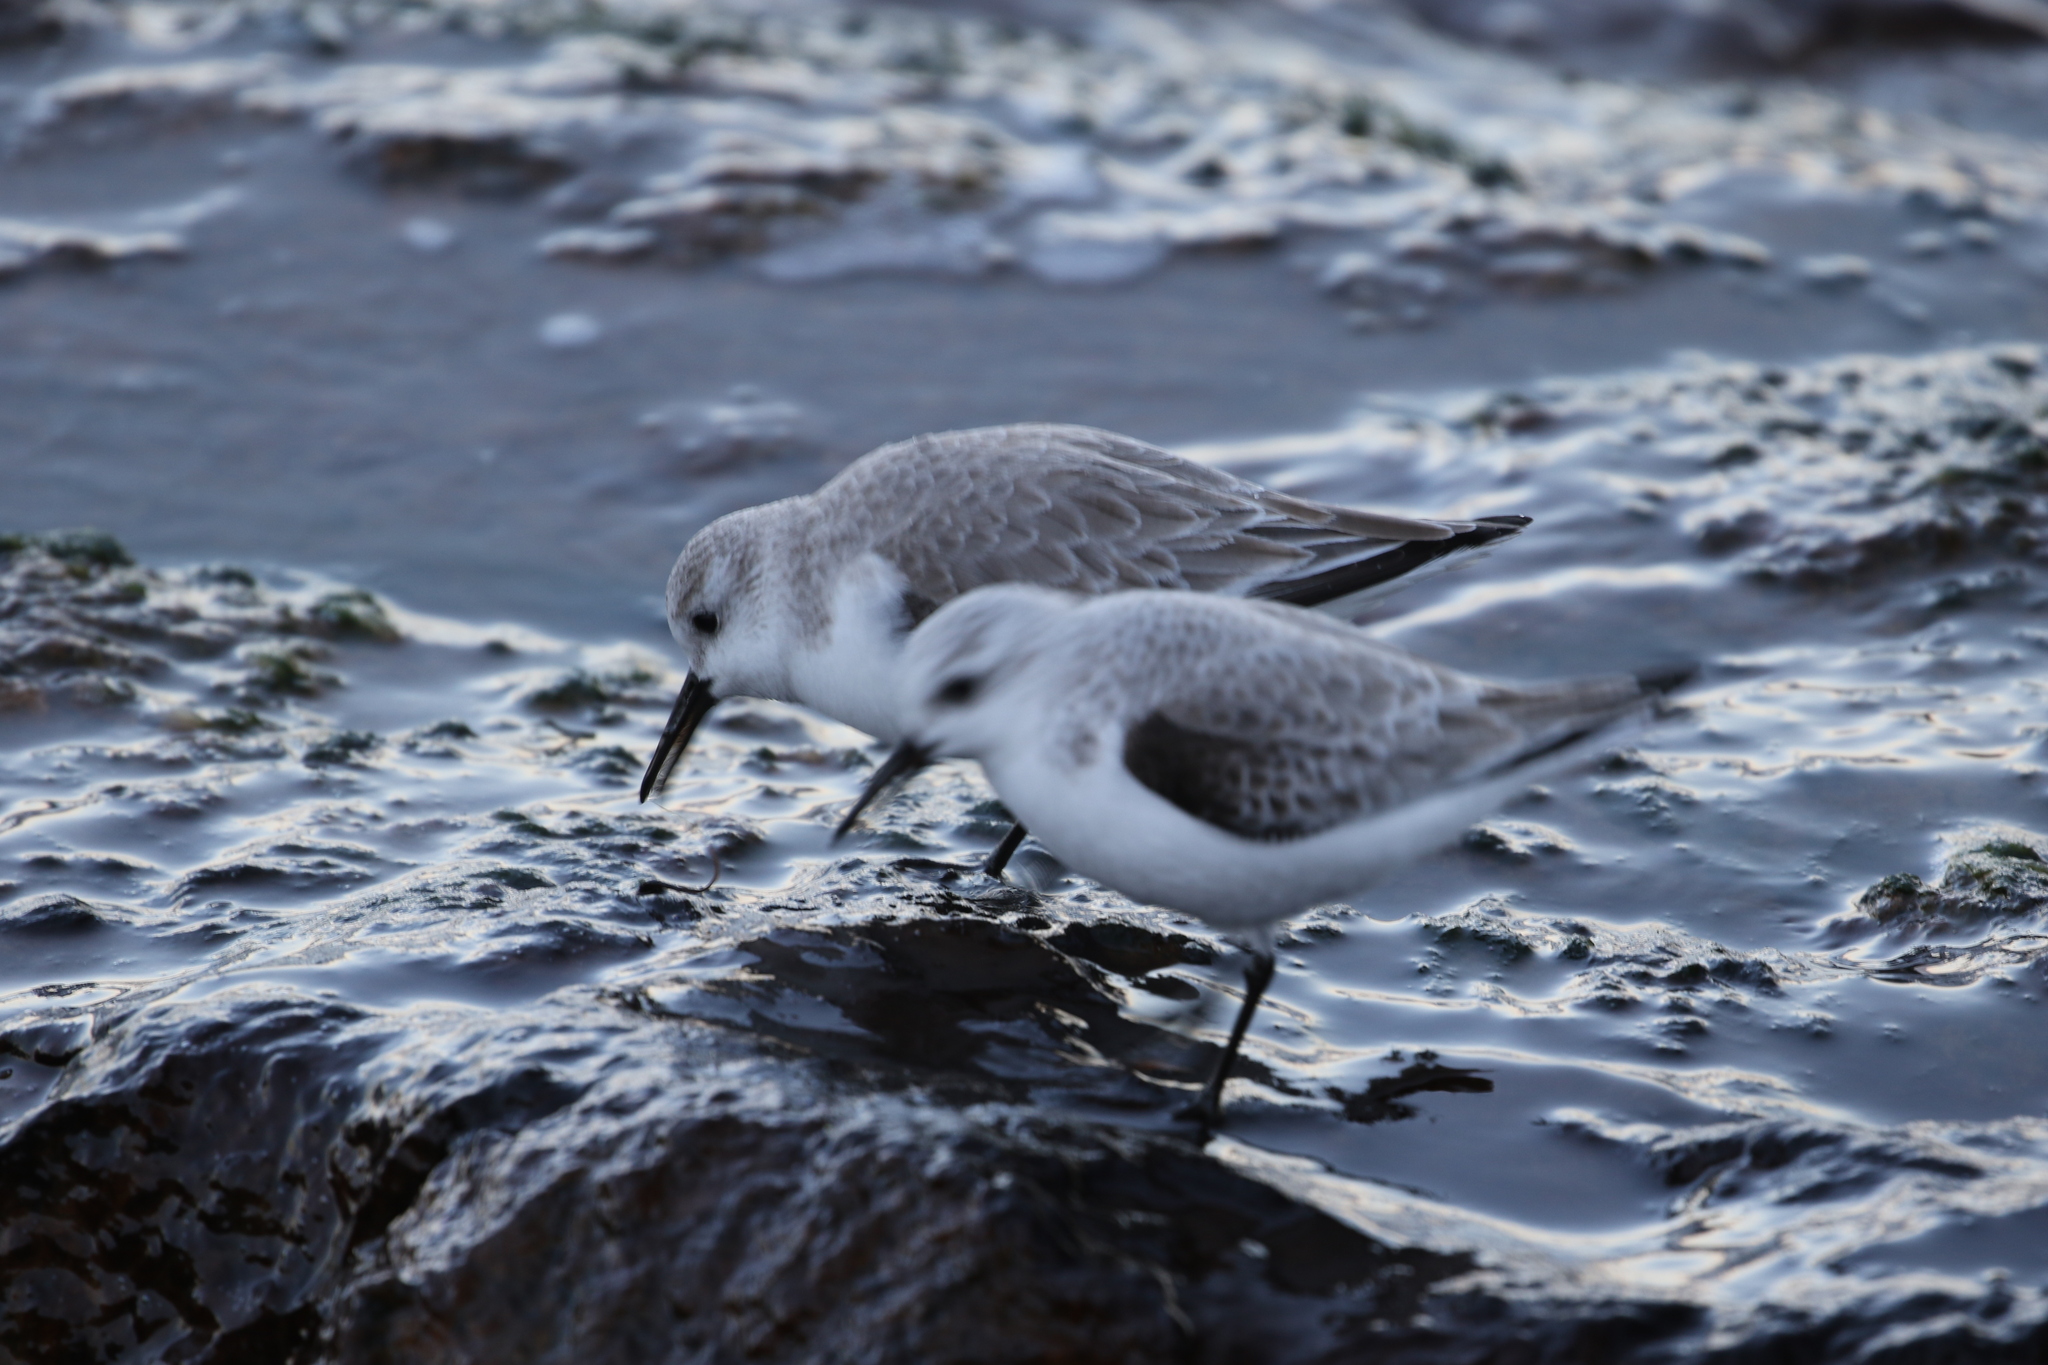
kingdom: Animalia
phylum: Chordata
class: Aves
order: Charadriiformes
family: Scolopacidae
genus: Calidris
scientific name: Calidris alba
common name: Sanderling
